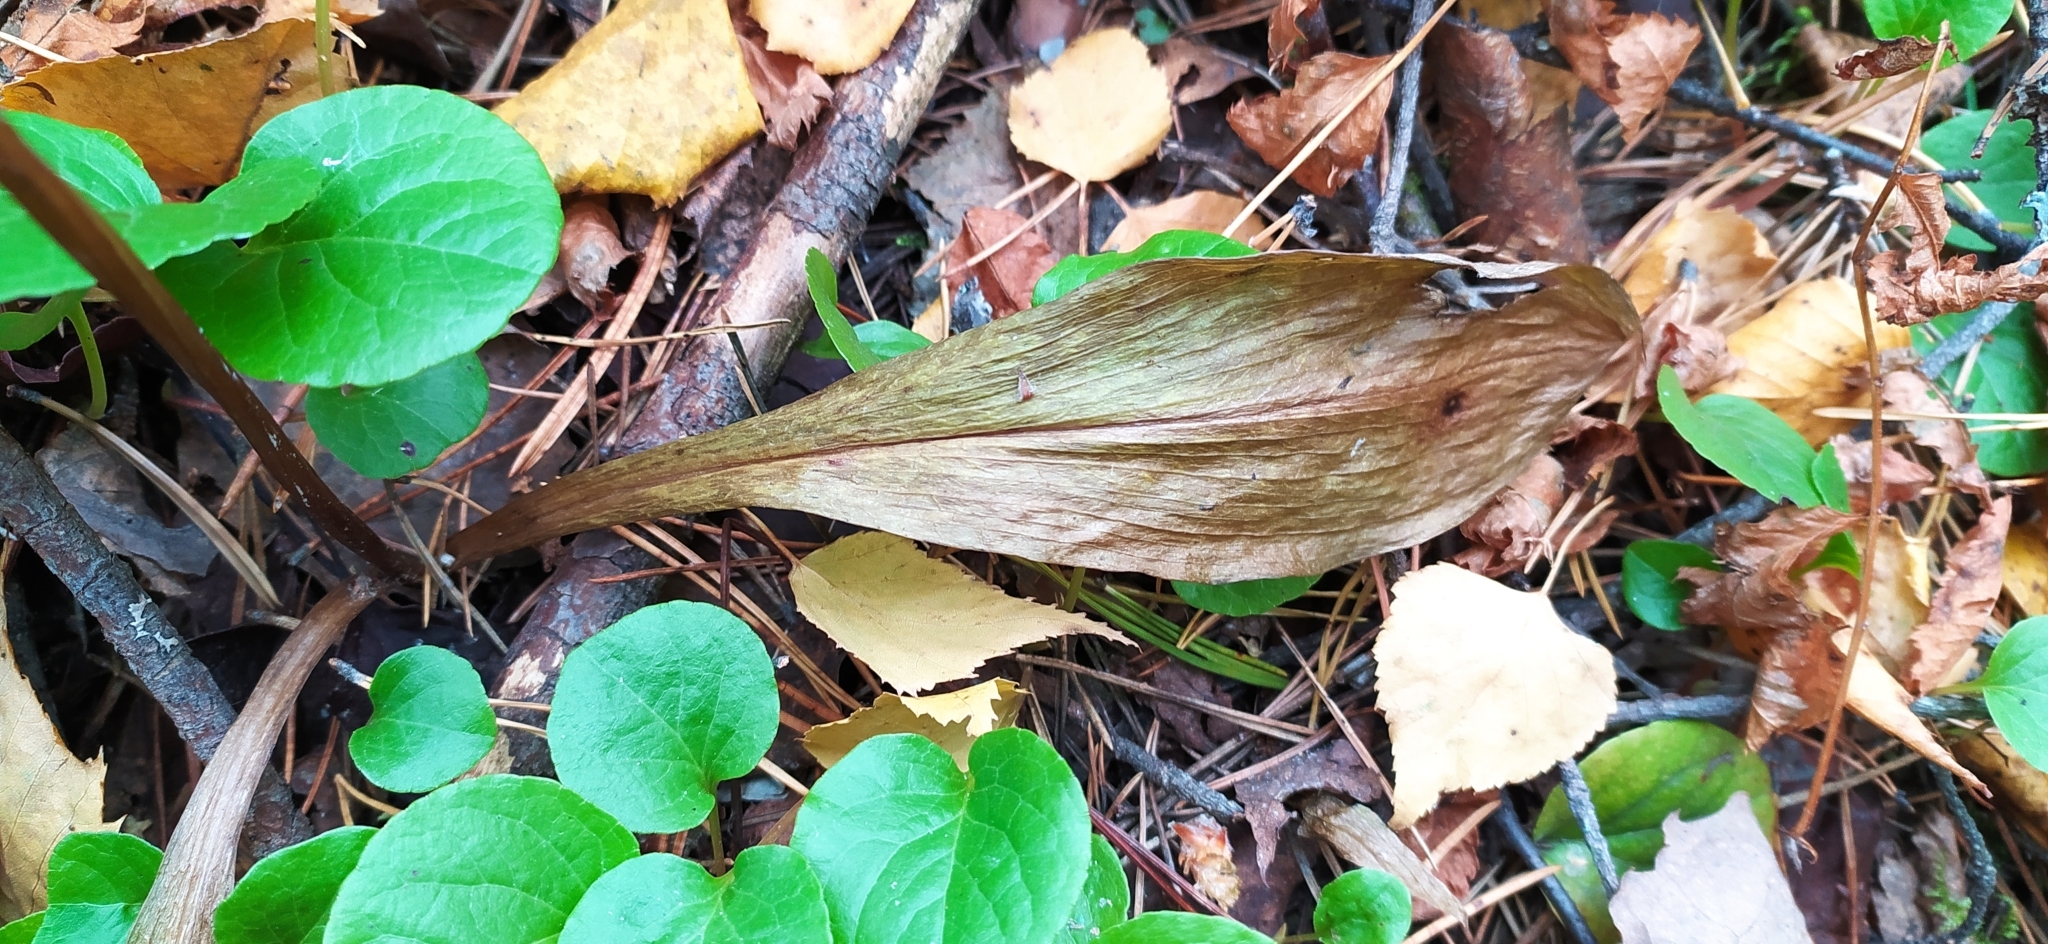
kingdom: Plantae
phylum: Tracheophyta
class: Liliopsida
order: Asparagales
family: Orchidaceae
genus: Platanthera
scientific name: Platanthera bifolia
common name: Lesser butterfly-orchid
